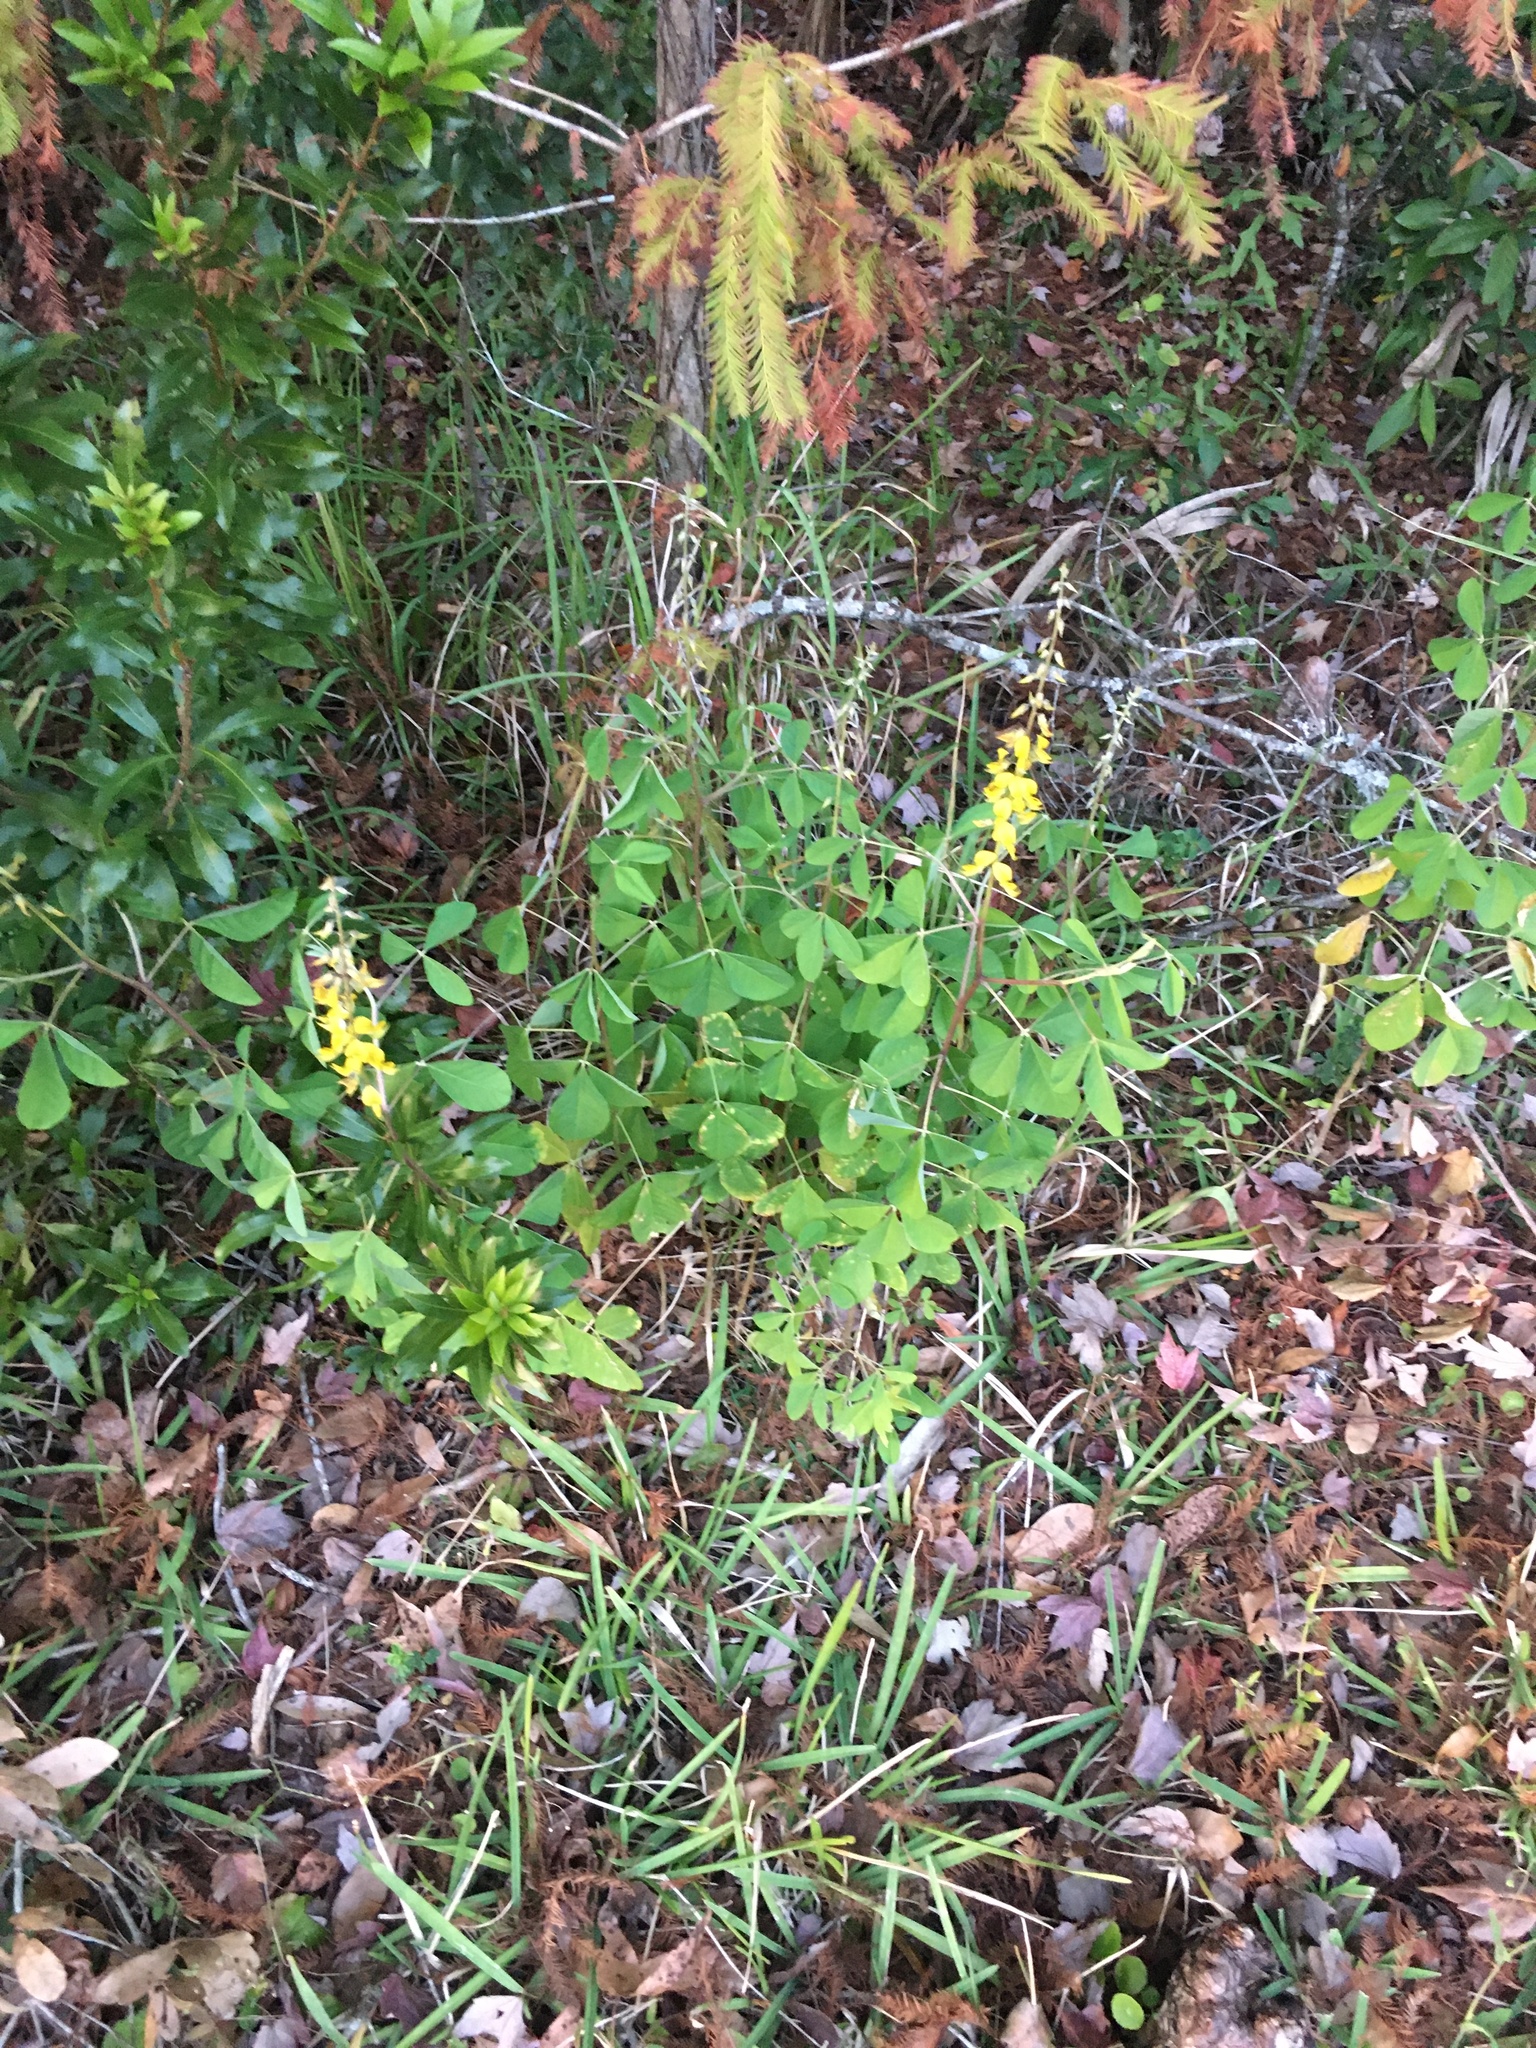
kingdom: Plantae
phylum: Tracheophyta
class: Magnoliopsida
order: Fabales
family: Fabaceae
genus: Crotalaria
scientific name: Crotalaria pallida
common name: Smooth rattlebox
